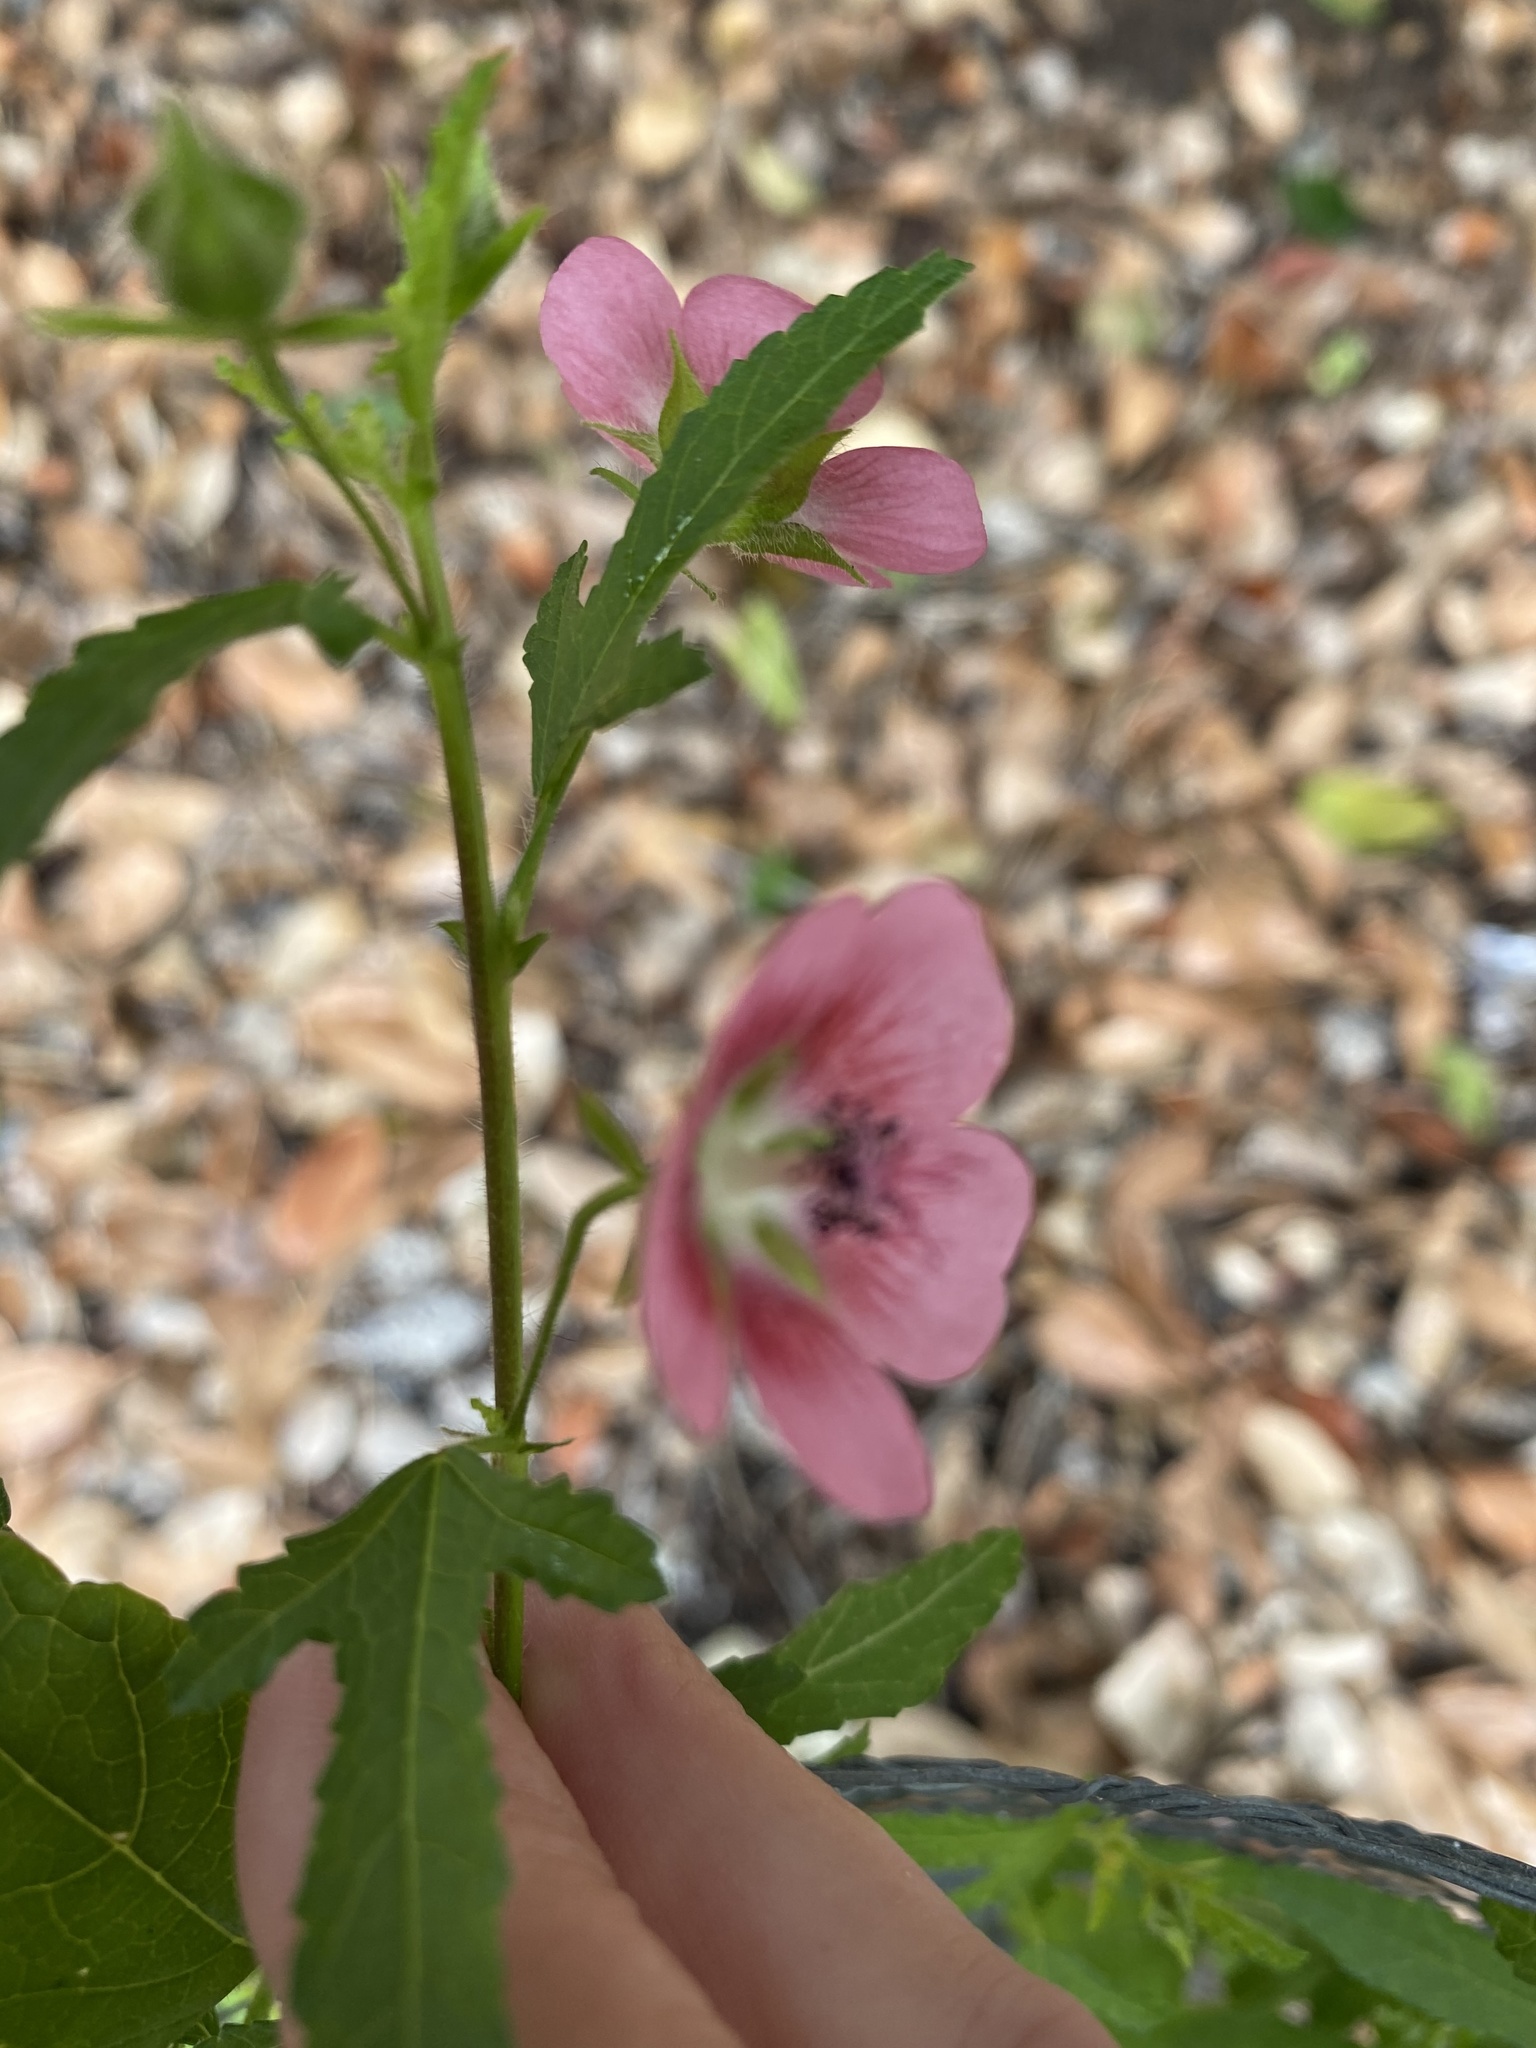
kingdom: Plantae
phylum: Tracheophyta
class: Magnoliopsida
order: Malvales
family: Malvaceae
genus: Anisodontea
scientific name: Anisodontea scabrosa
